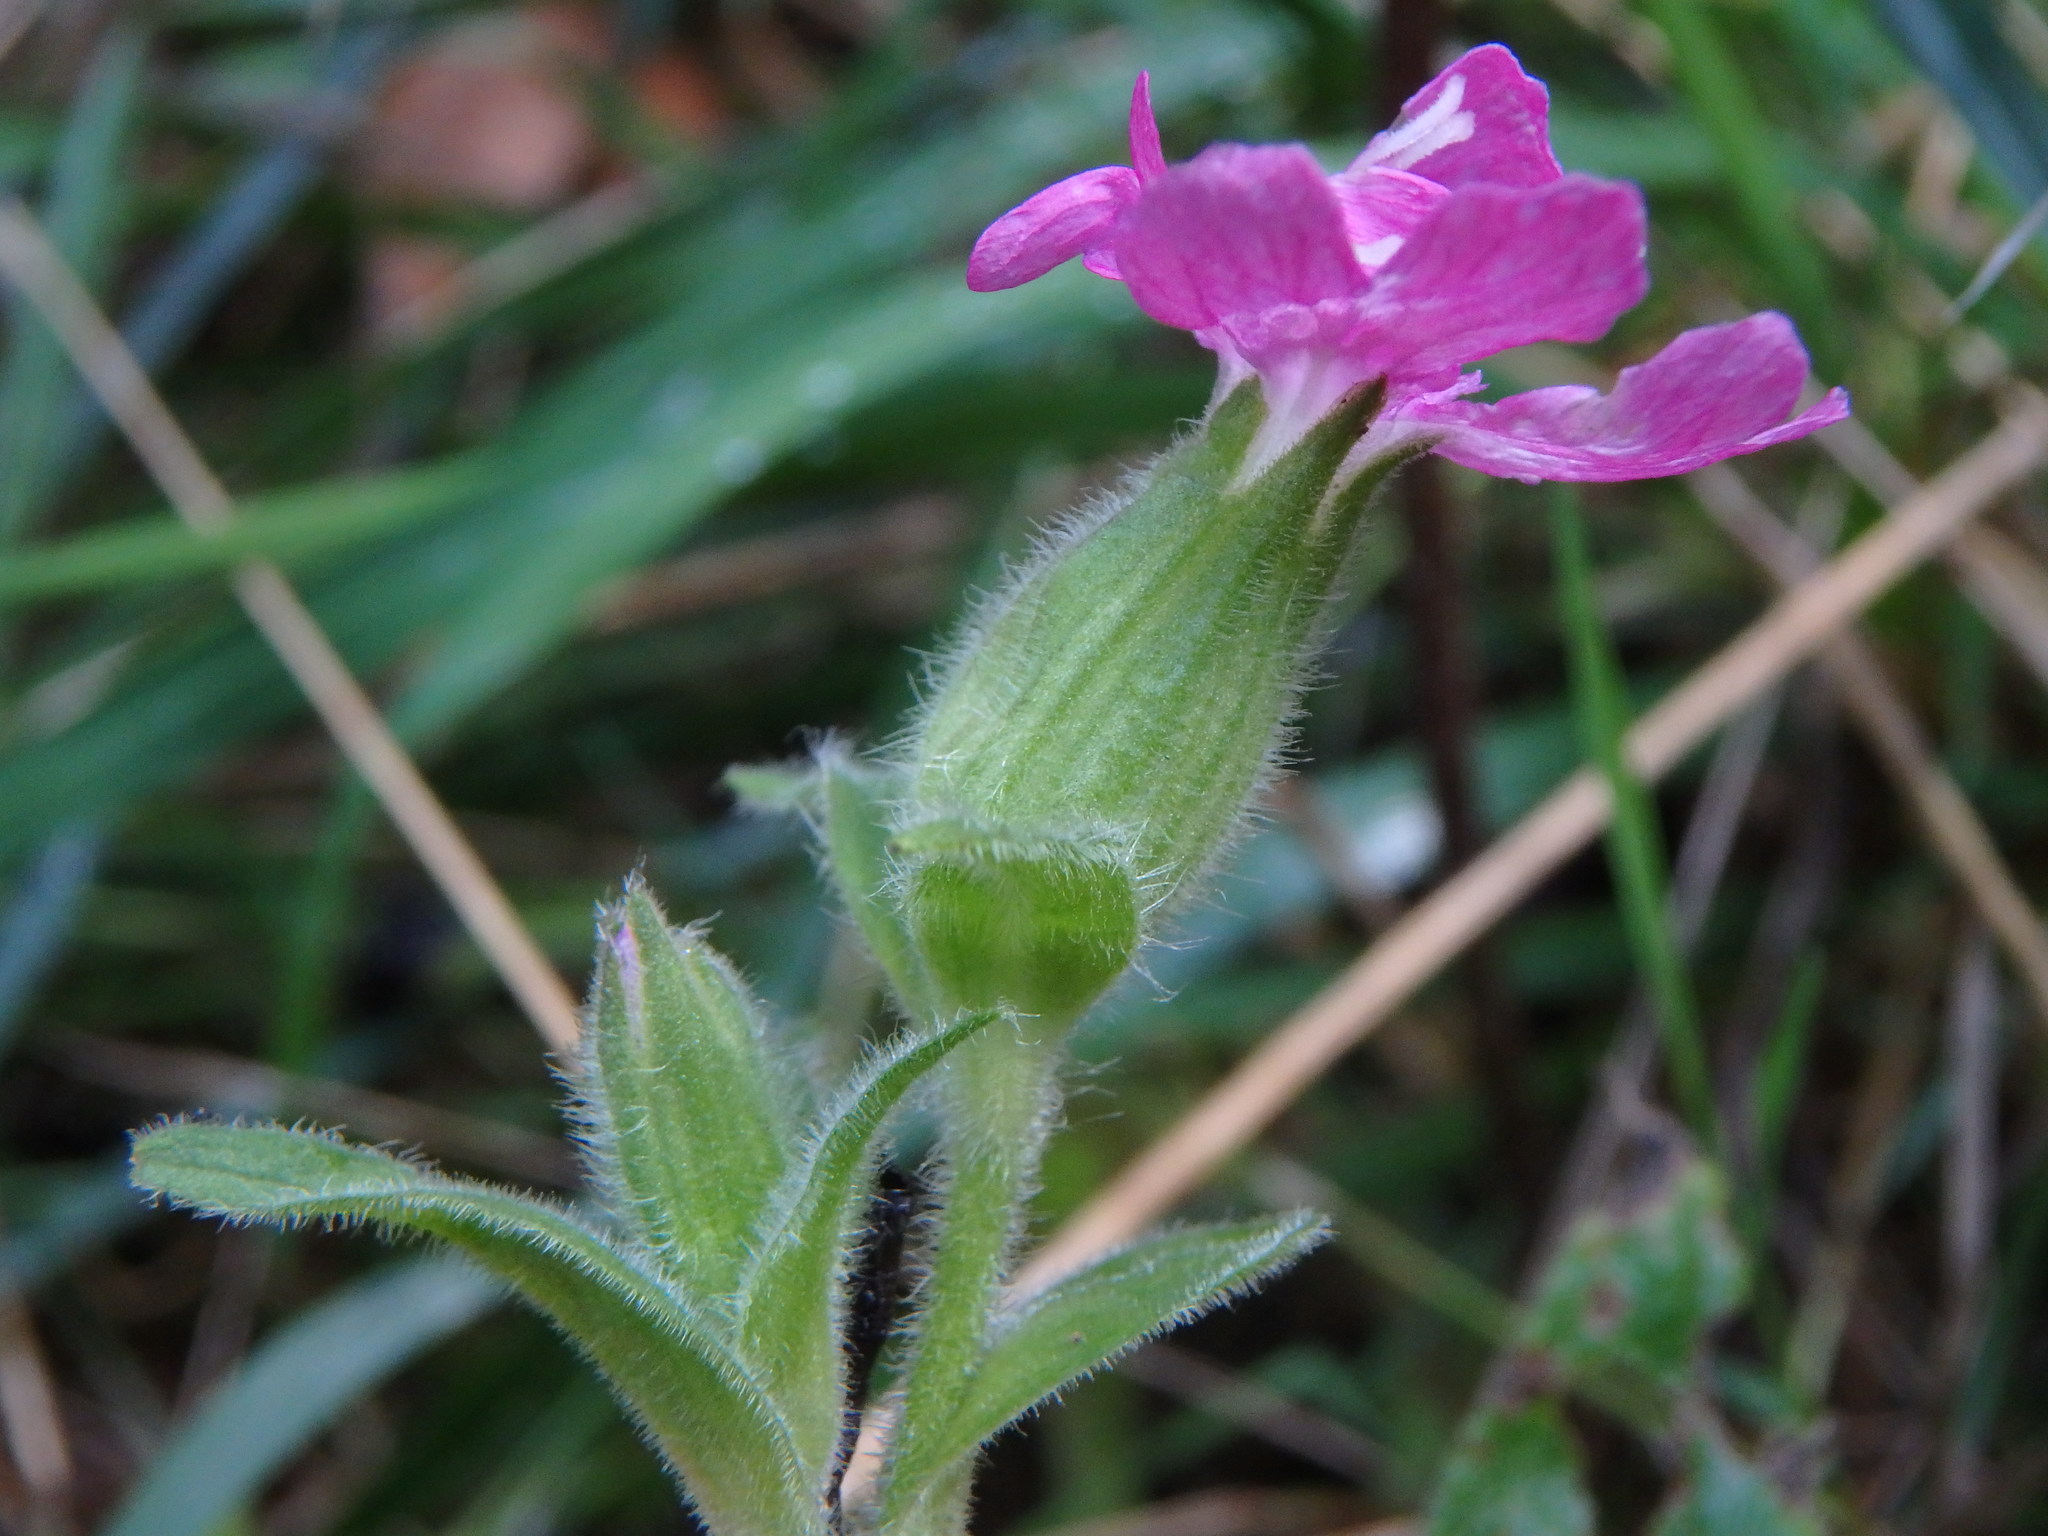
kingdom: Plantae
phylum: Tracheophyta
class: Magnoliopsida
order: Caryophyllales
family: Caryophyllaceae
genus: Silene
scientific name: Silene dioica
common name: Red campion
